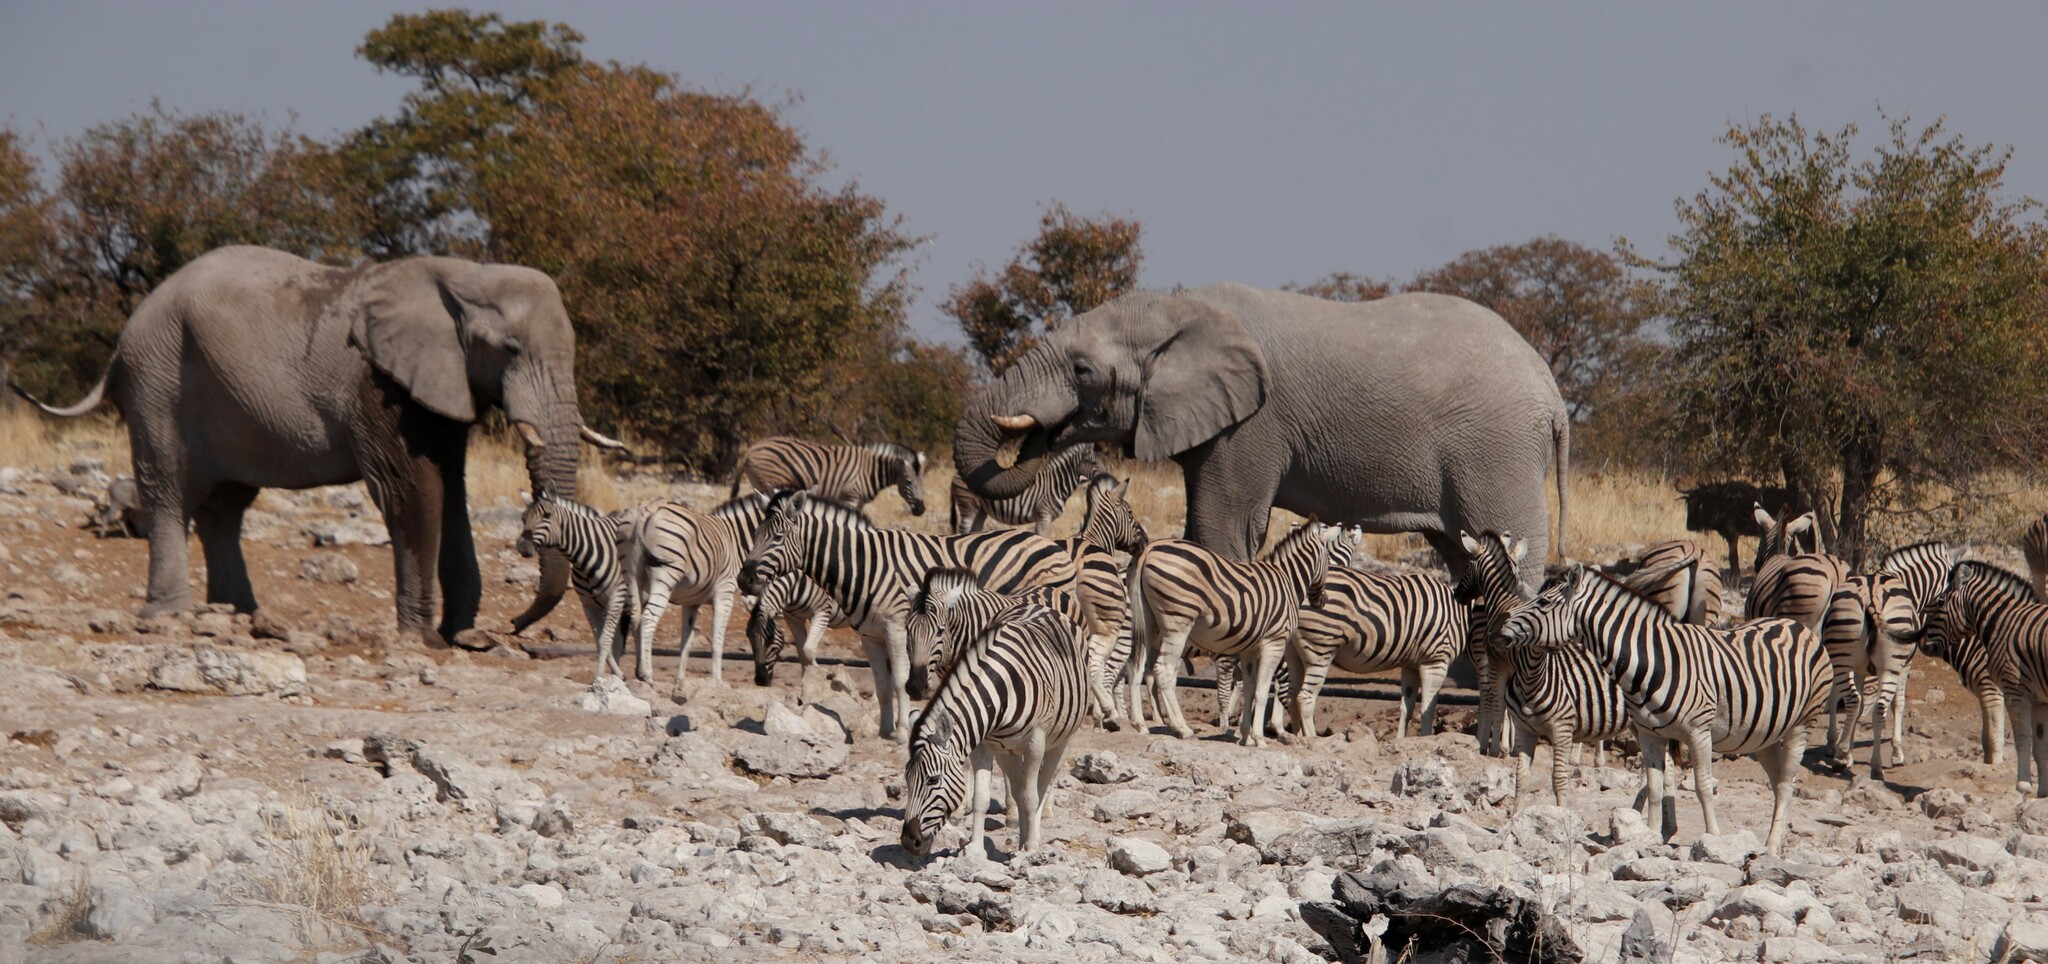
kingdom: Animalia
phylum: Chordata
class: Mammalia
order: Proboscidea
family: Elephantidae
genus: Loxodonta
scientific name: Loxodonta africana
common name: African elephant
